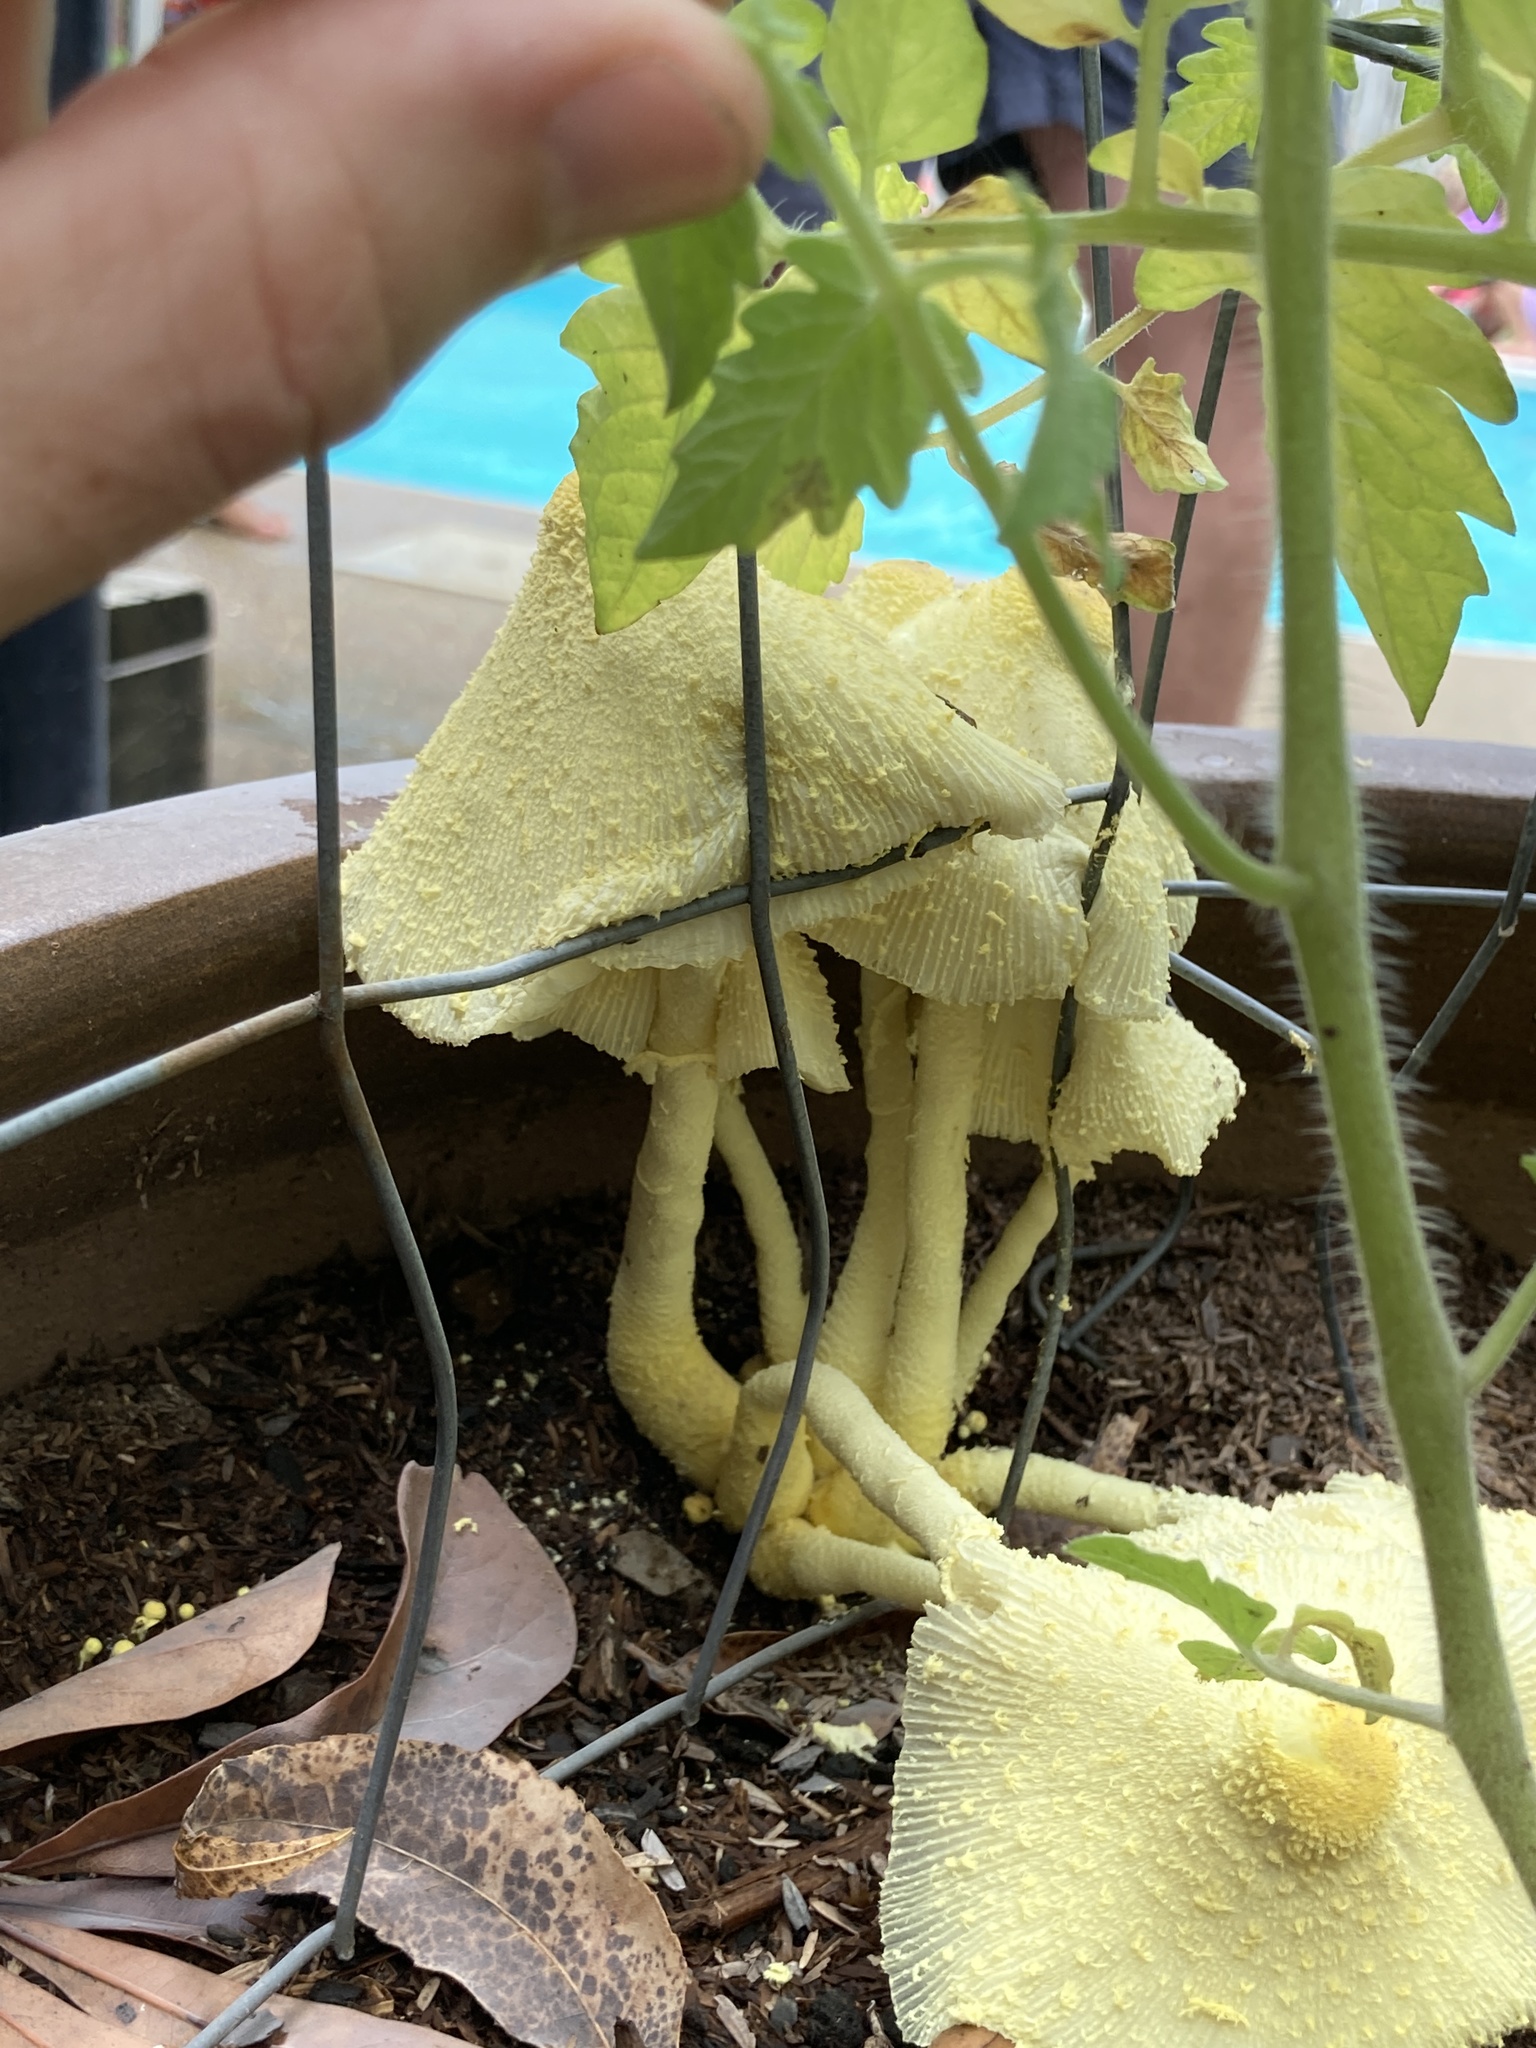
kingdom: Fungi
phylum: Basidiomycota
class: Agaricomycetes
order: Agaricales
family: Agaricaceae
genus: Leucocoprinus
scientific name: Leucocoprinus birnbaumii
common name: Plantpot dapperling
